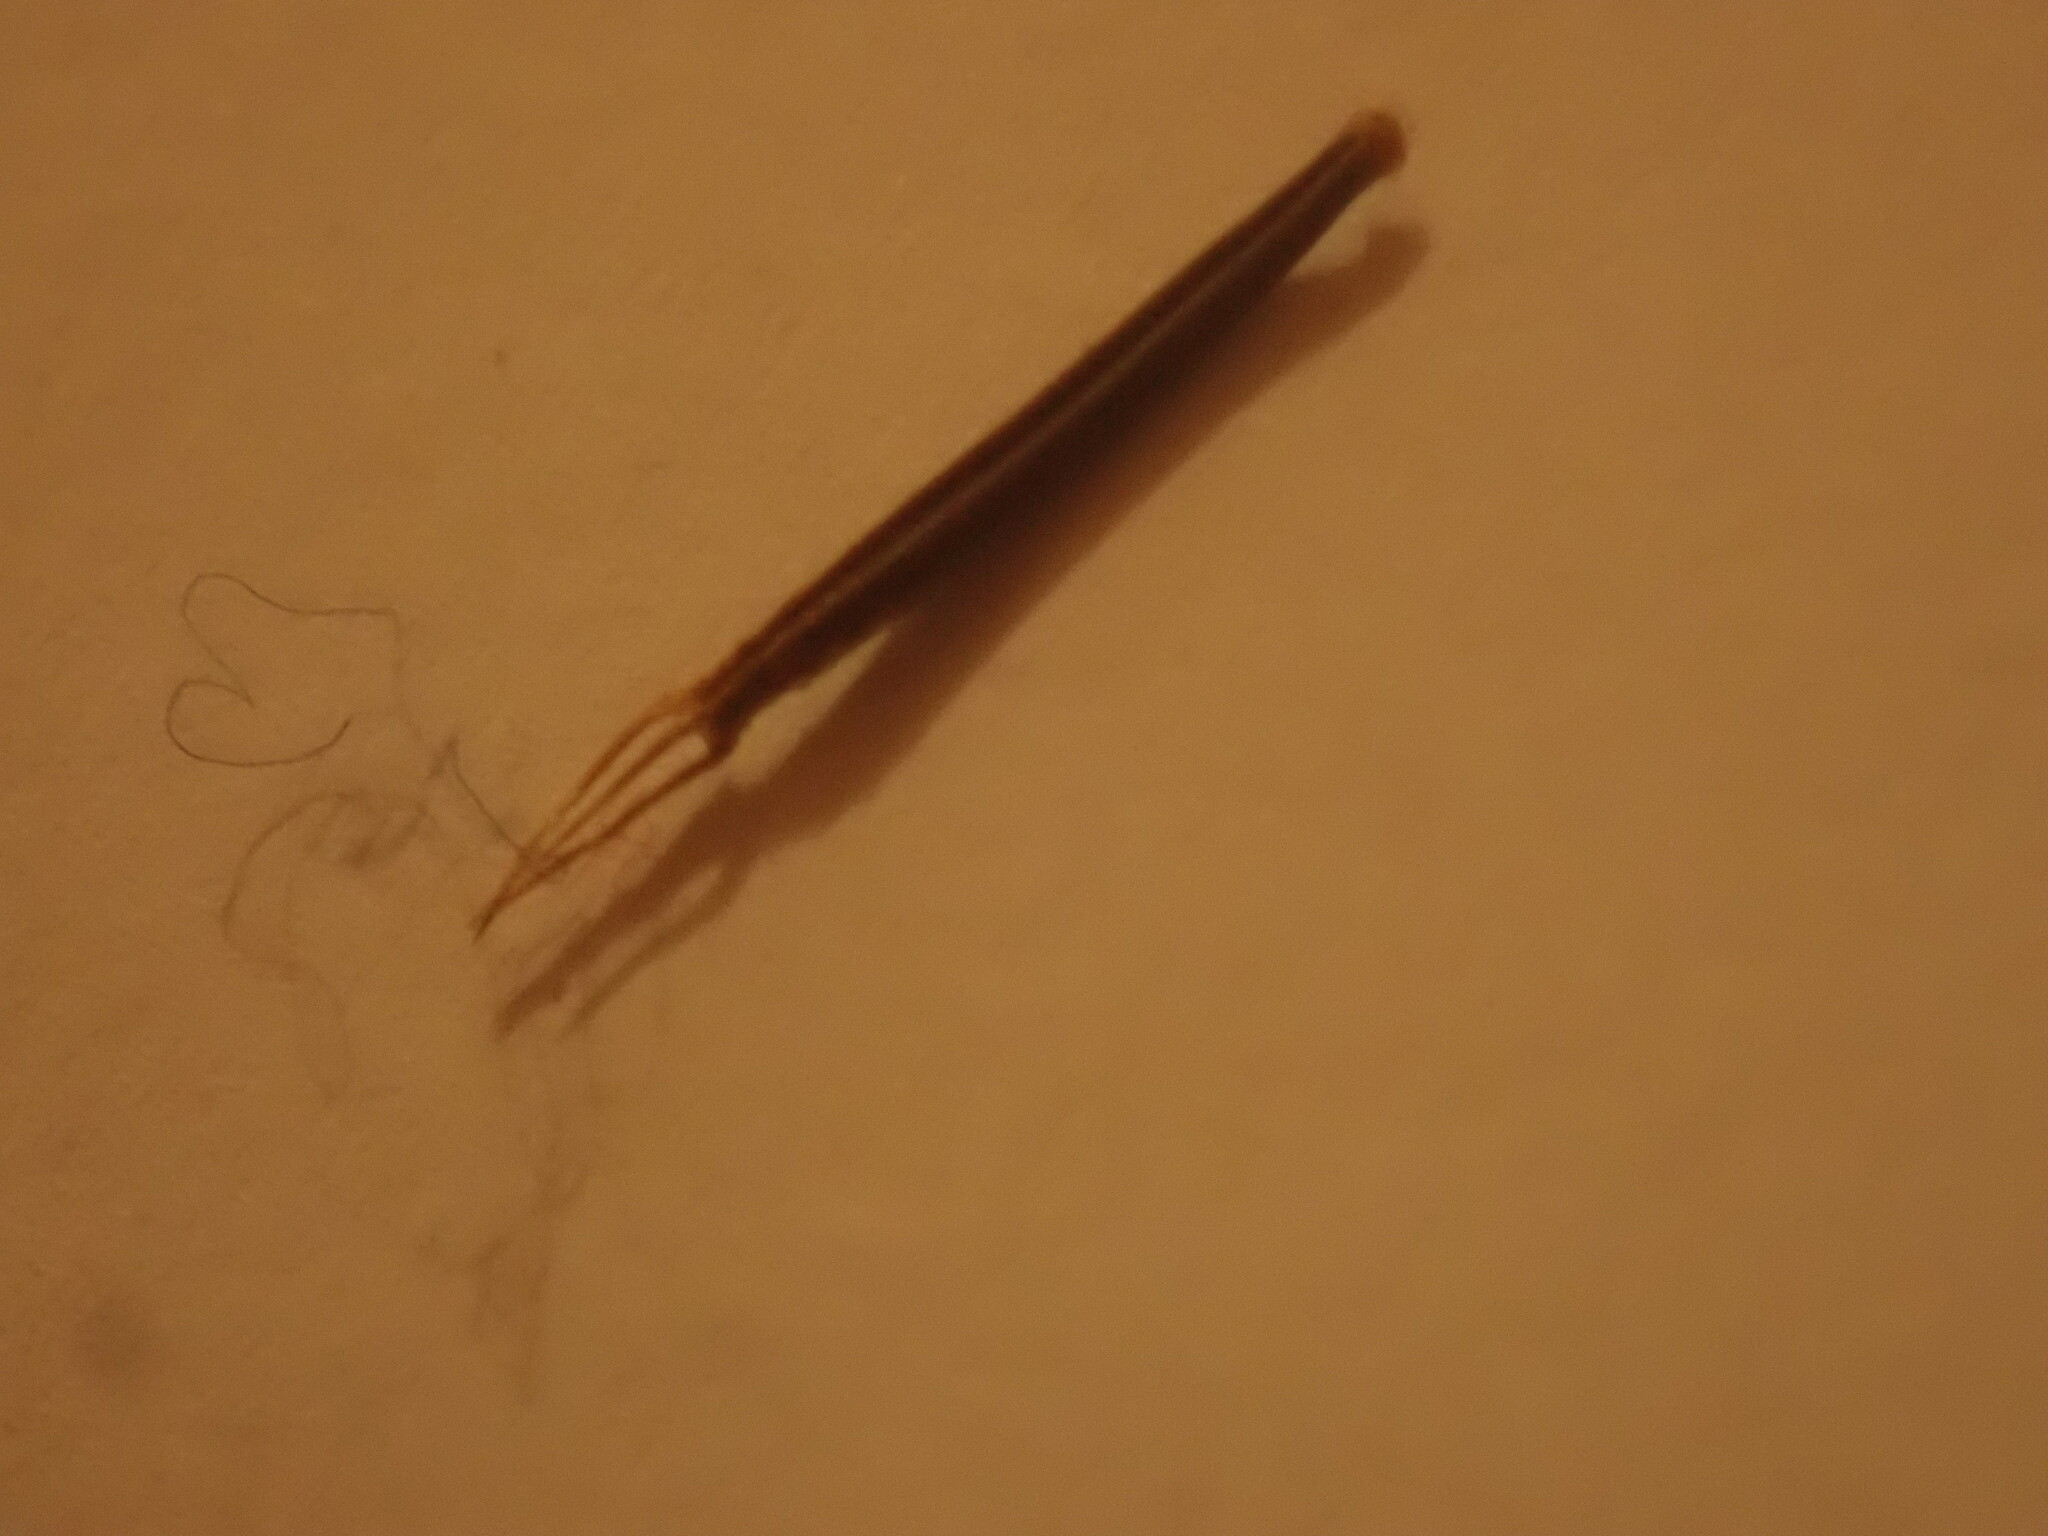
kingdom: Plantae
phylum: Tracheophyta
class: Magnoliopsida
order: Asterales
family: Asteraceae
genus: Bidens
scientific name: Bidens frondosa
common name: Beggarticks
